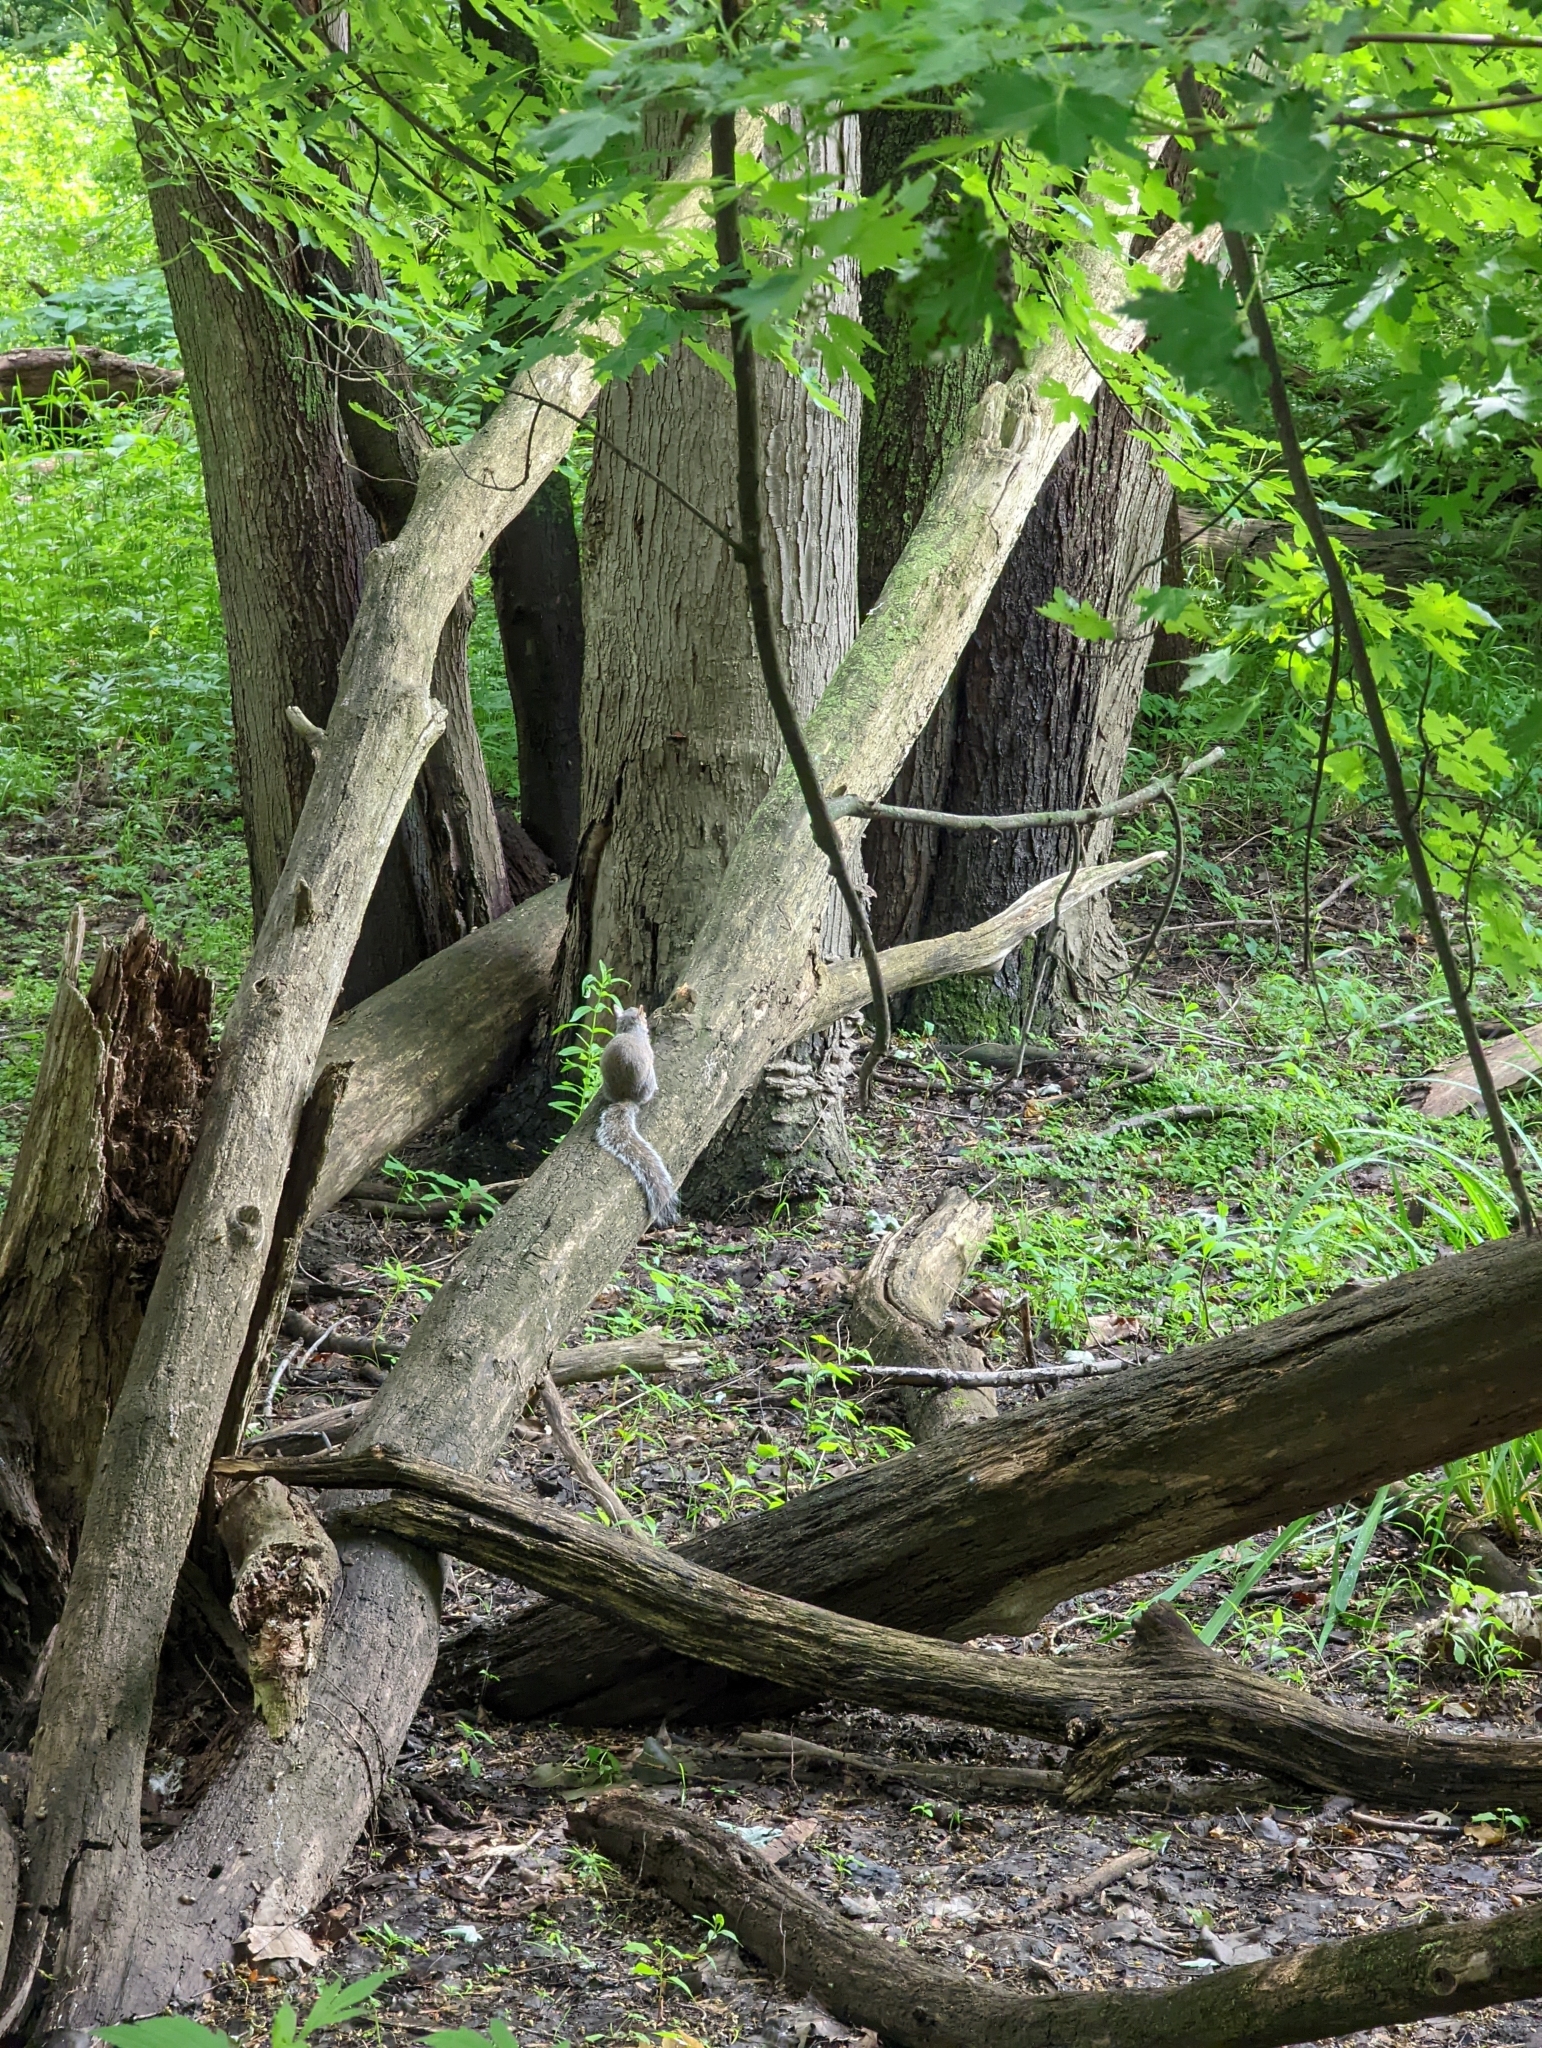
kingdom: Animalia
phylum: Chordata
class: Mammalia
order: Rodentia
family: Sciuridae
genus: Sciurus
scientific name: Sciurus carolinensis
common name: Eastern gray squirrel
